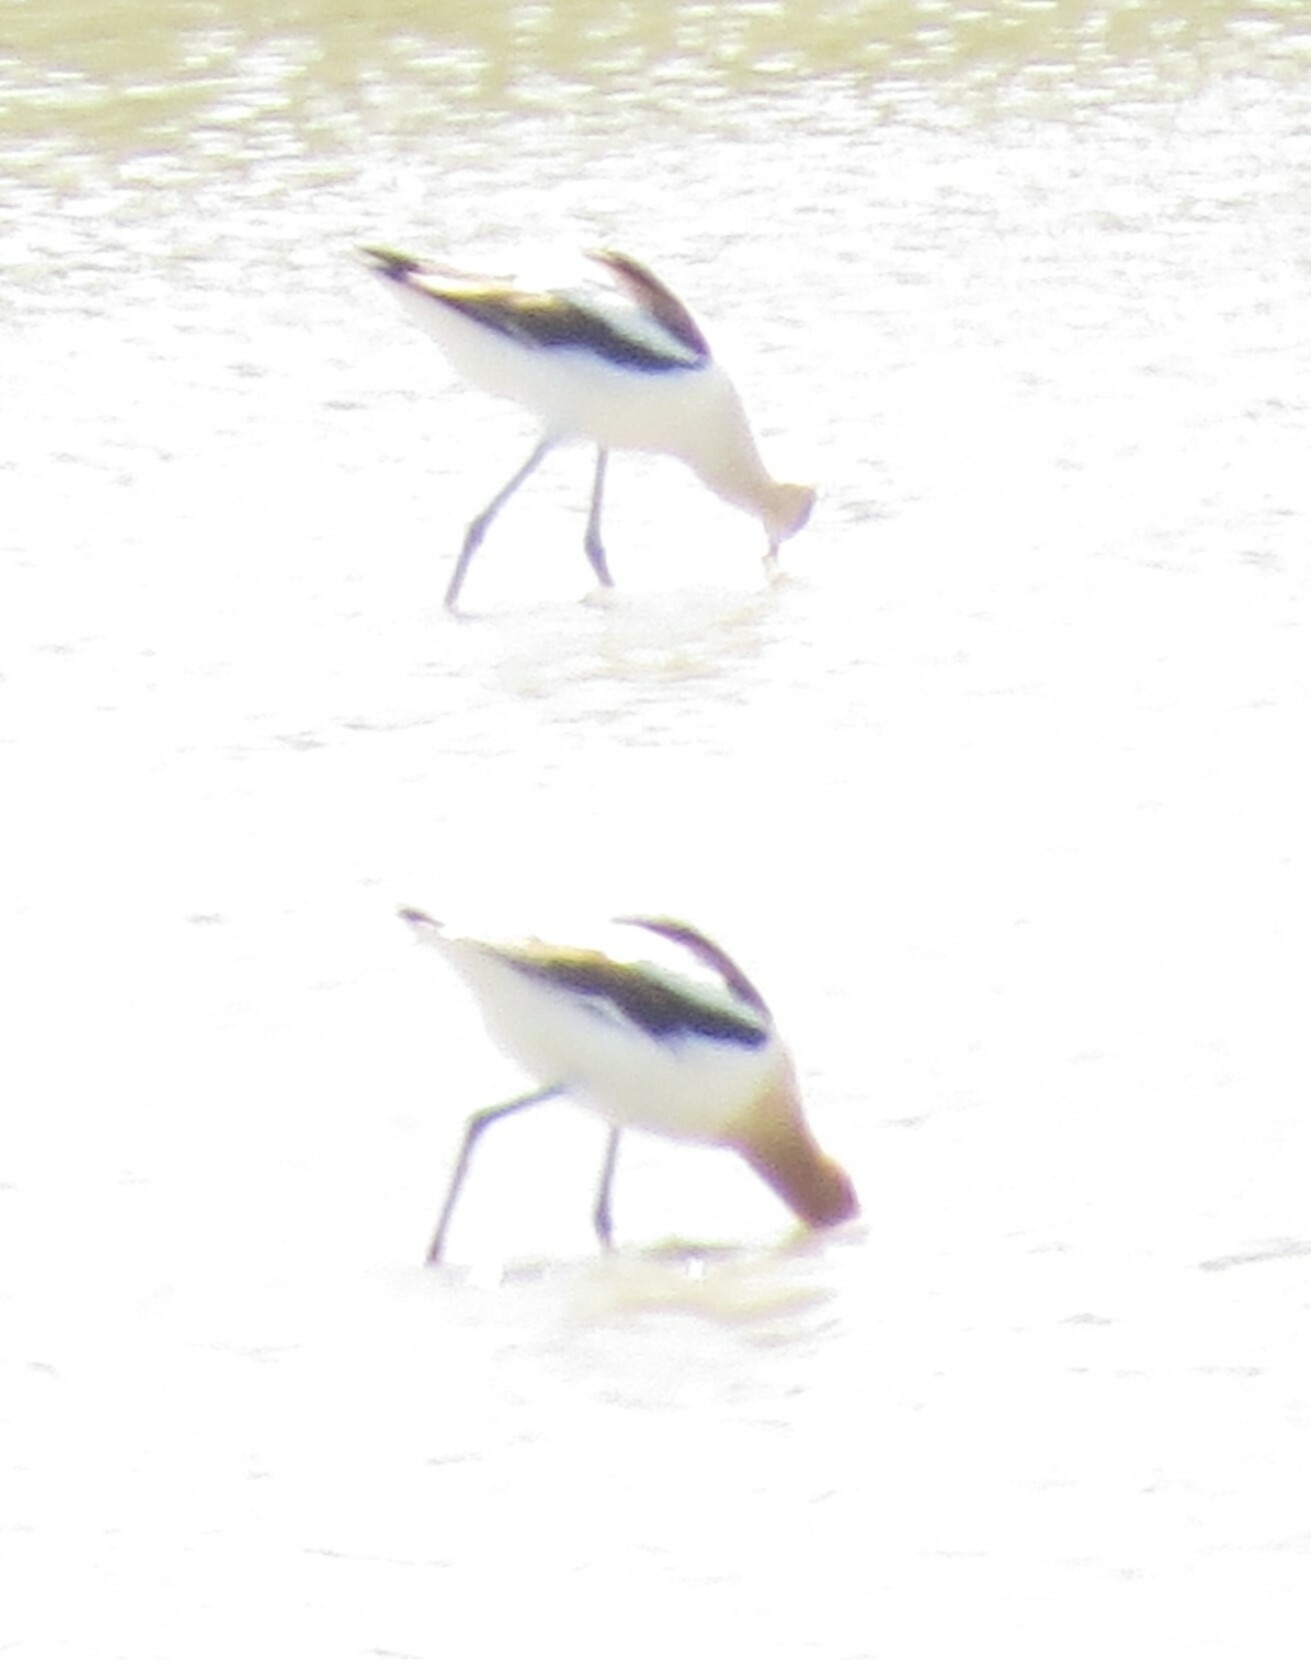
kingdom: Animalia
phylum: Chordata
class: Aves
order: Charadriiformes
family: Recurvirostridae
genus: Recurvirostra
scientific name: Recurvirostra americana
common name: American avocet
